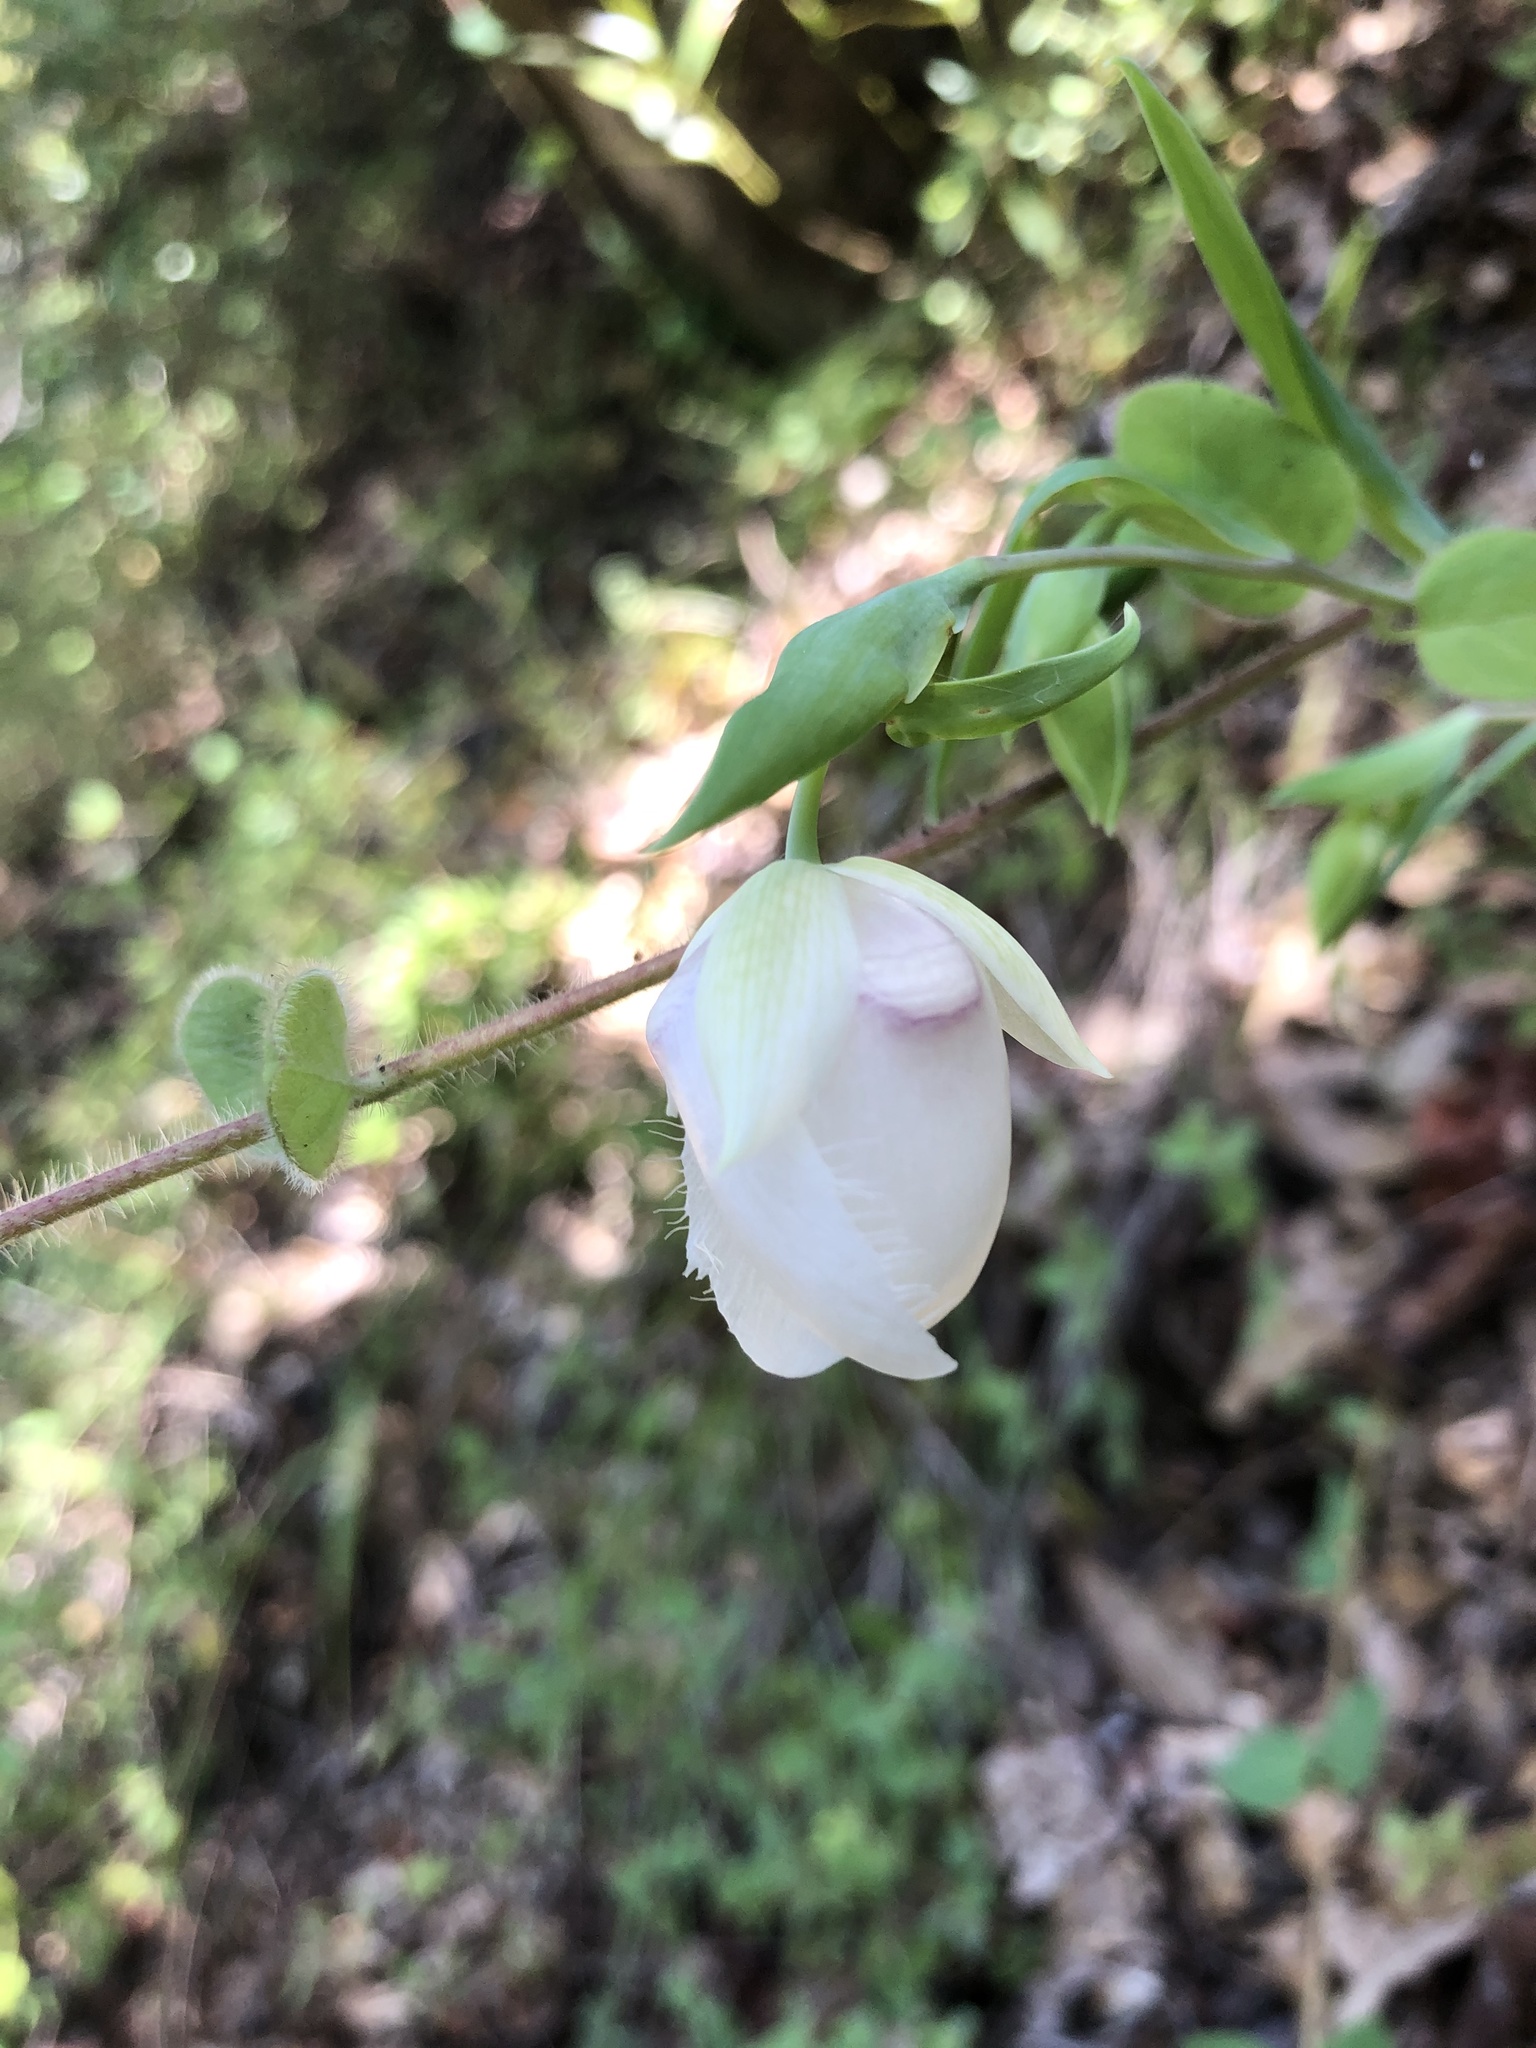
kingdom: Plantae
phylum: Tracheophyta
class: Liliopsida
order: Liliales
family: Liliaceae
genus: Calochortus
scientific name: Calochortus albus
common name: Fairy-lantern
